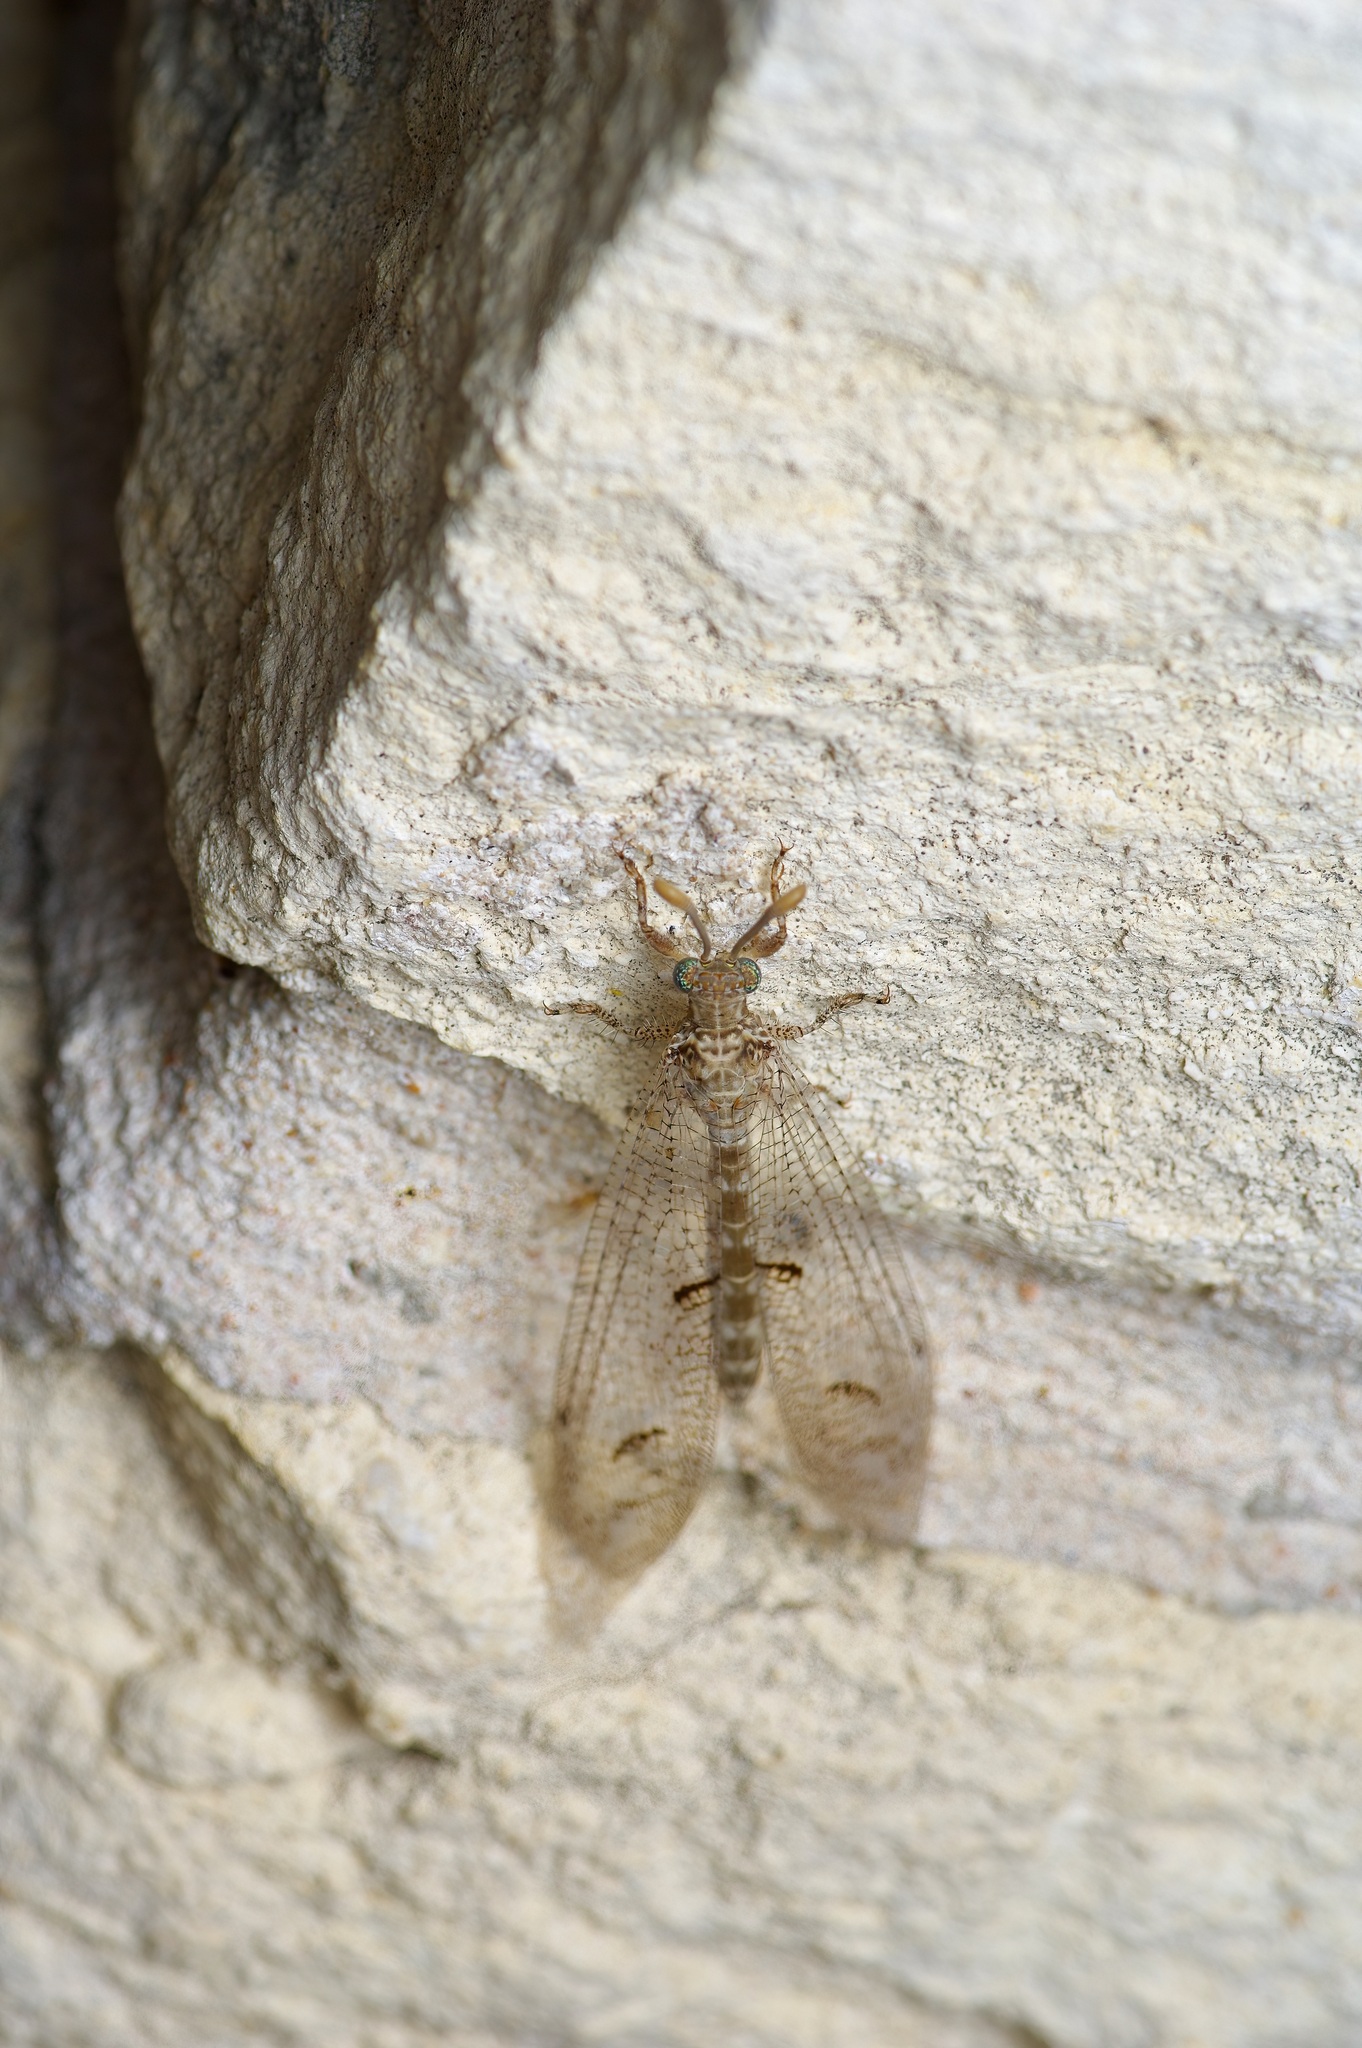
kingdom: Animalia
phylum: Arthropoda
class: Insecta
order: Neuroptera
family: Myrmeleontidae
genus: Euptilon
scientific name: Euptilon ornatum
